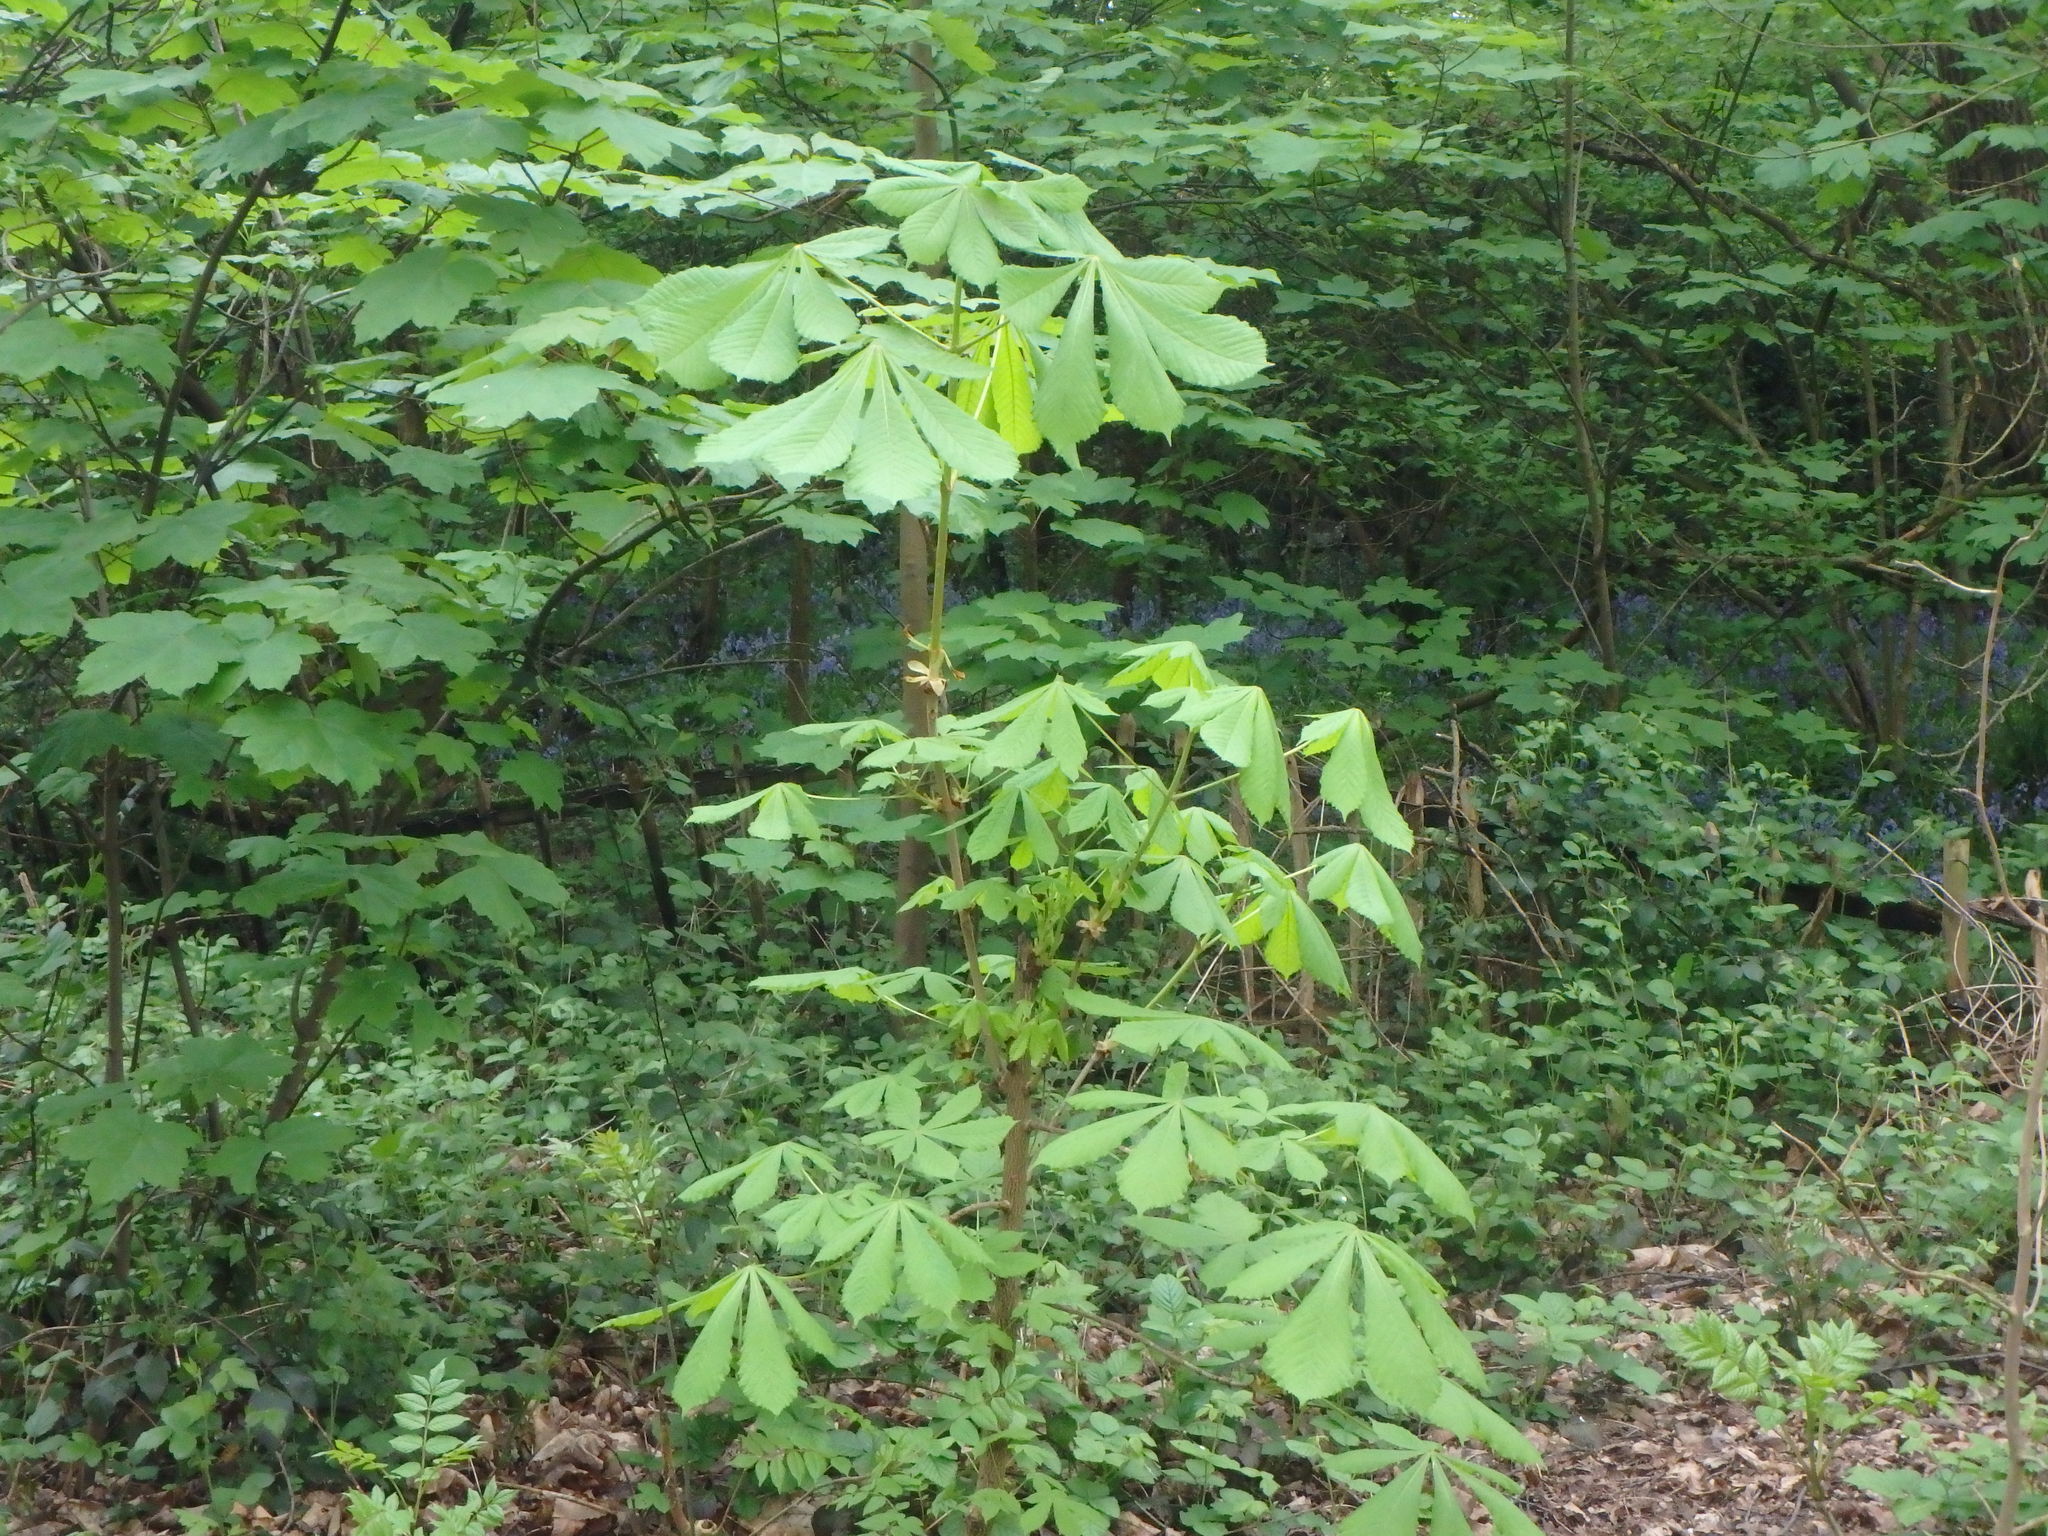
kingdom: Plantae
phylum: Tracheophyta
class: Magnoliopsida
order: Sapindales
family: Sapindaceae
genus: Aesculus
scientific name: Aesculus hippocastanum
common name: Horse-chestnut
